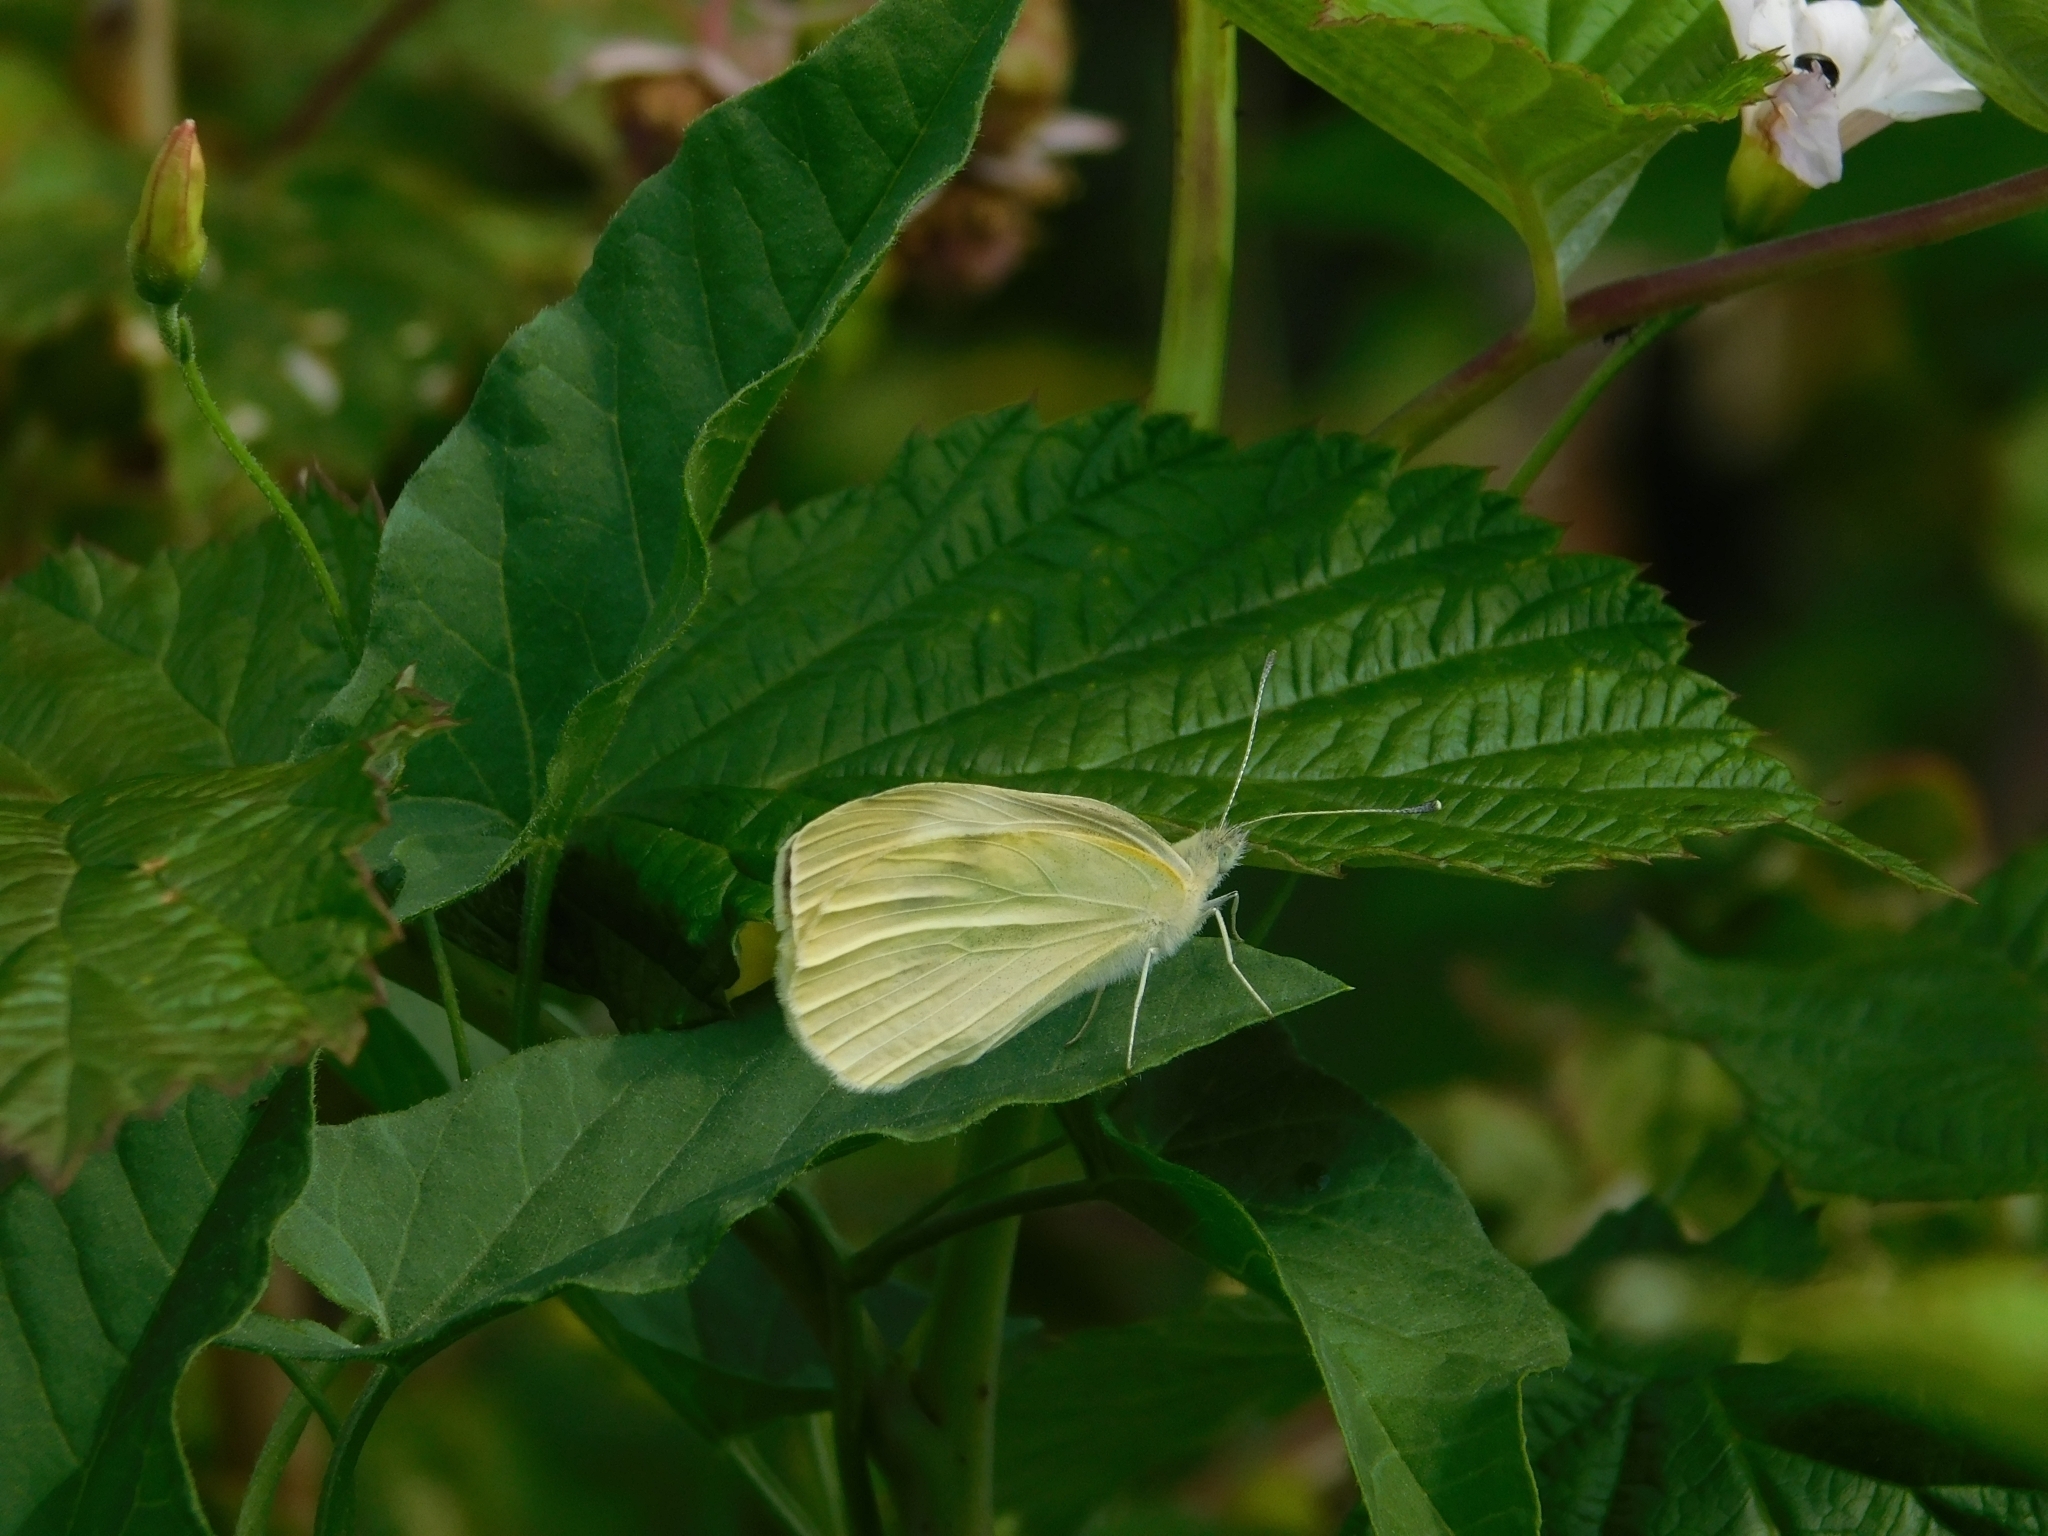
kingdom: Animalia
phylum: Arthropoda
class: Insecta
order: Lepidoptera
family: Pieridae
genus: Pieris
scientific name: Pieris rapae
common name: Small white
